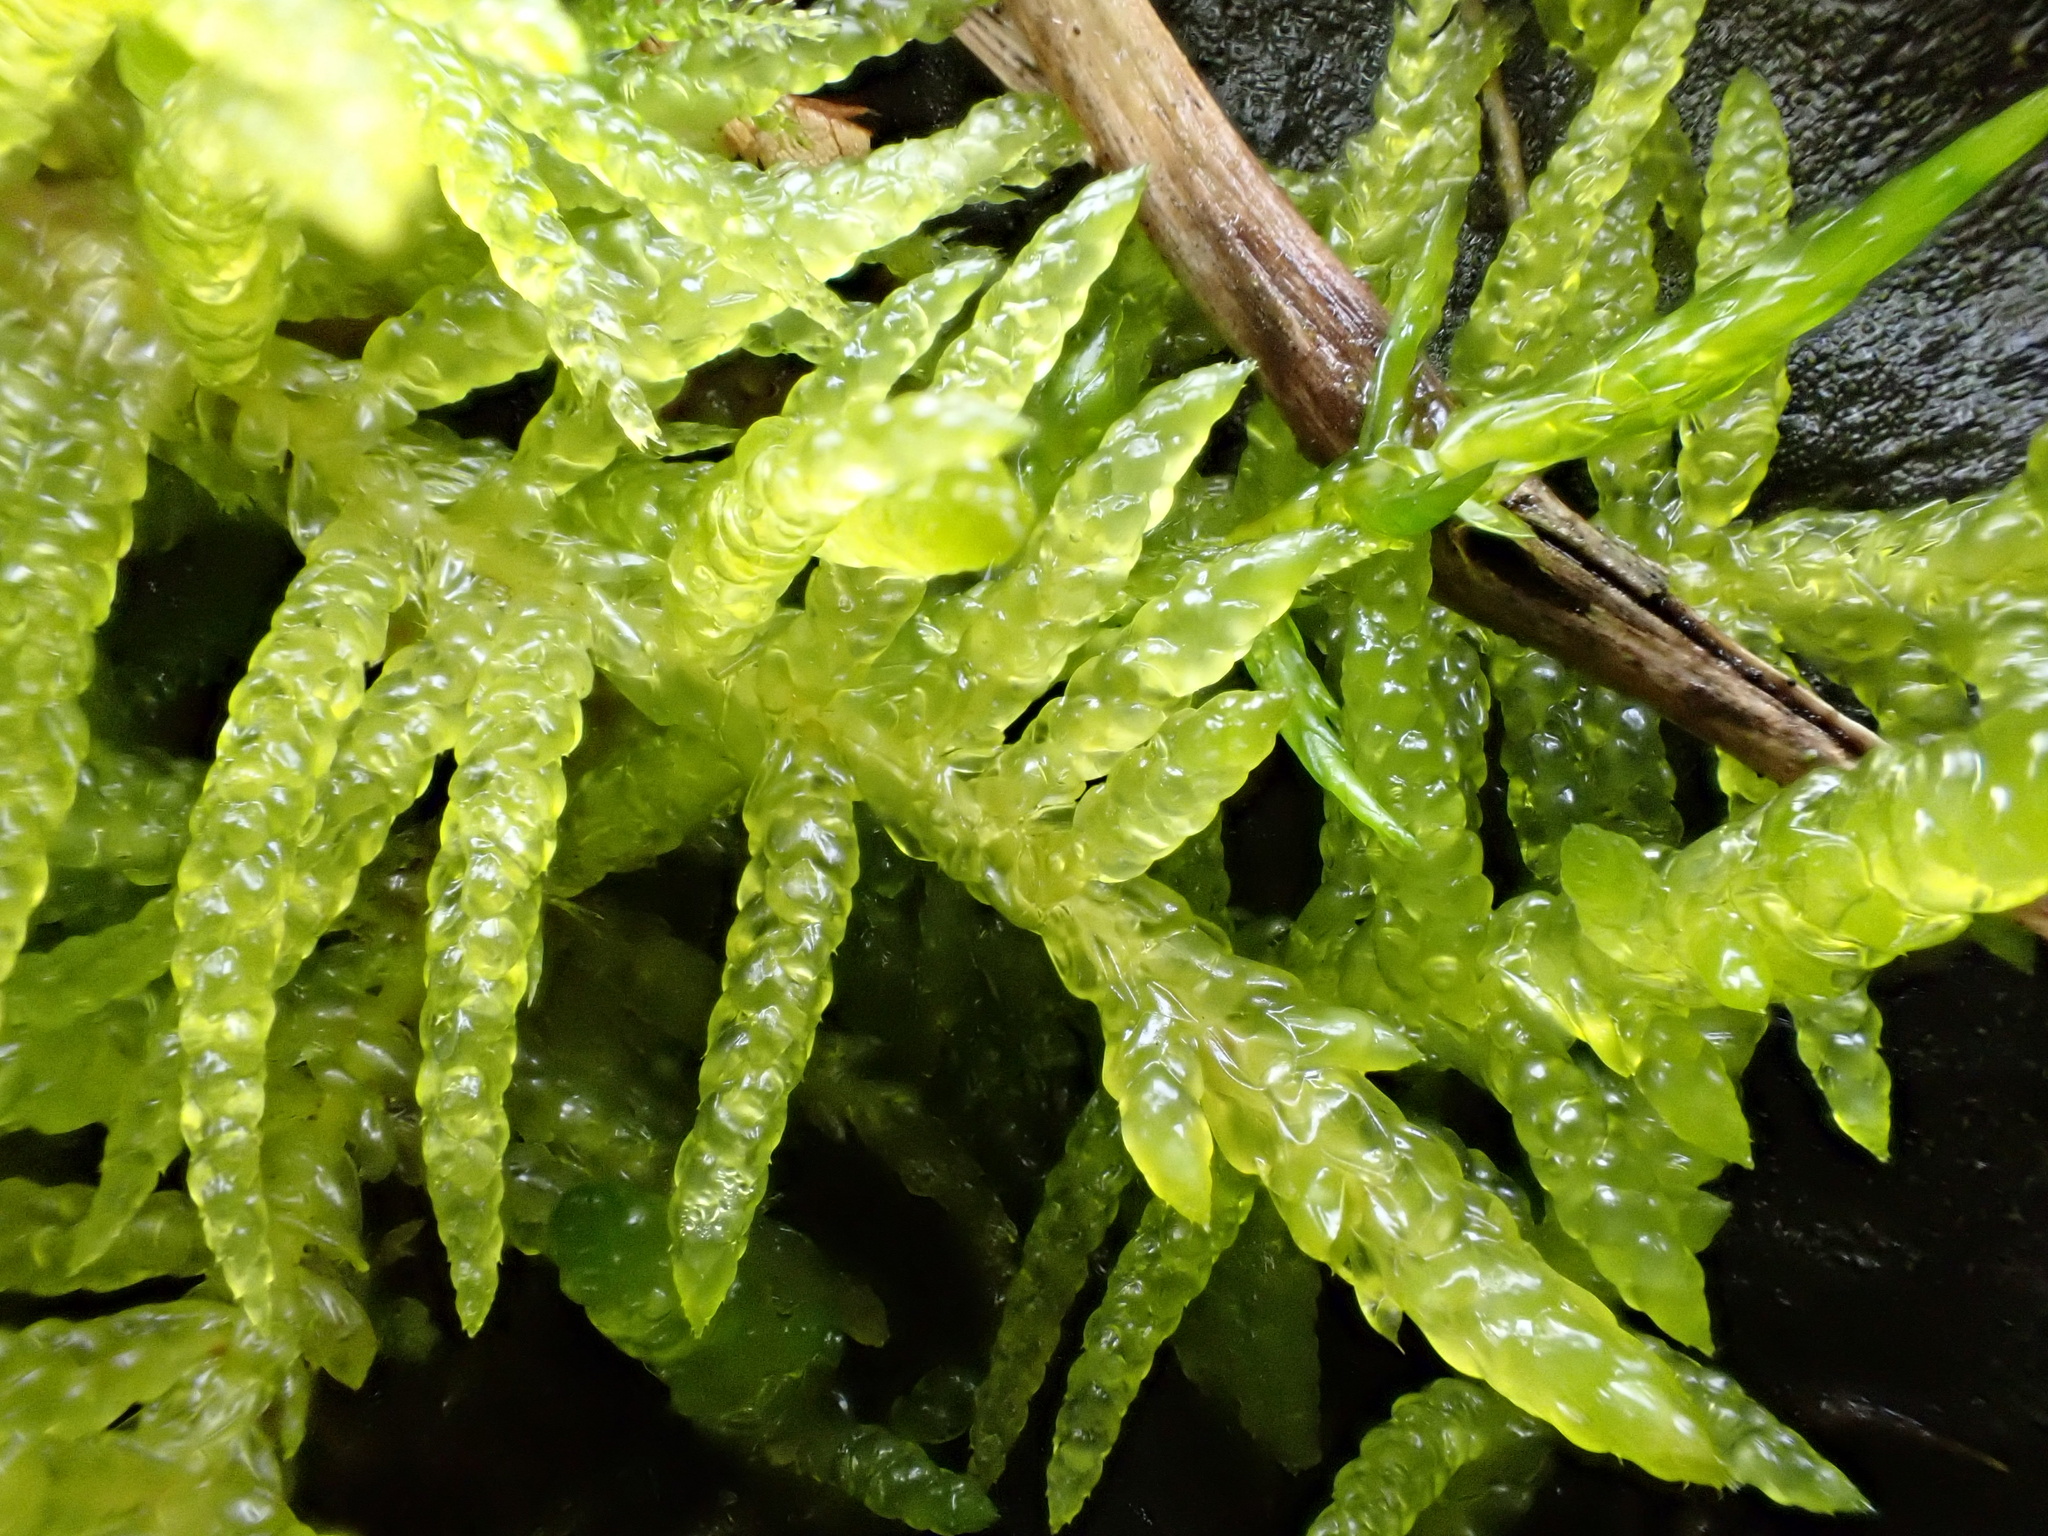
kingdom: Plantae
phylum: Bryophyta
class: Bryopsida
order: Hypnales
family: Brachytheciaceae
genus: Pseudoscleropodium
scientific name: Pseudoscleropodium purum
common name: Neat feather-moss
